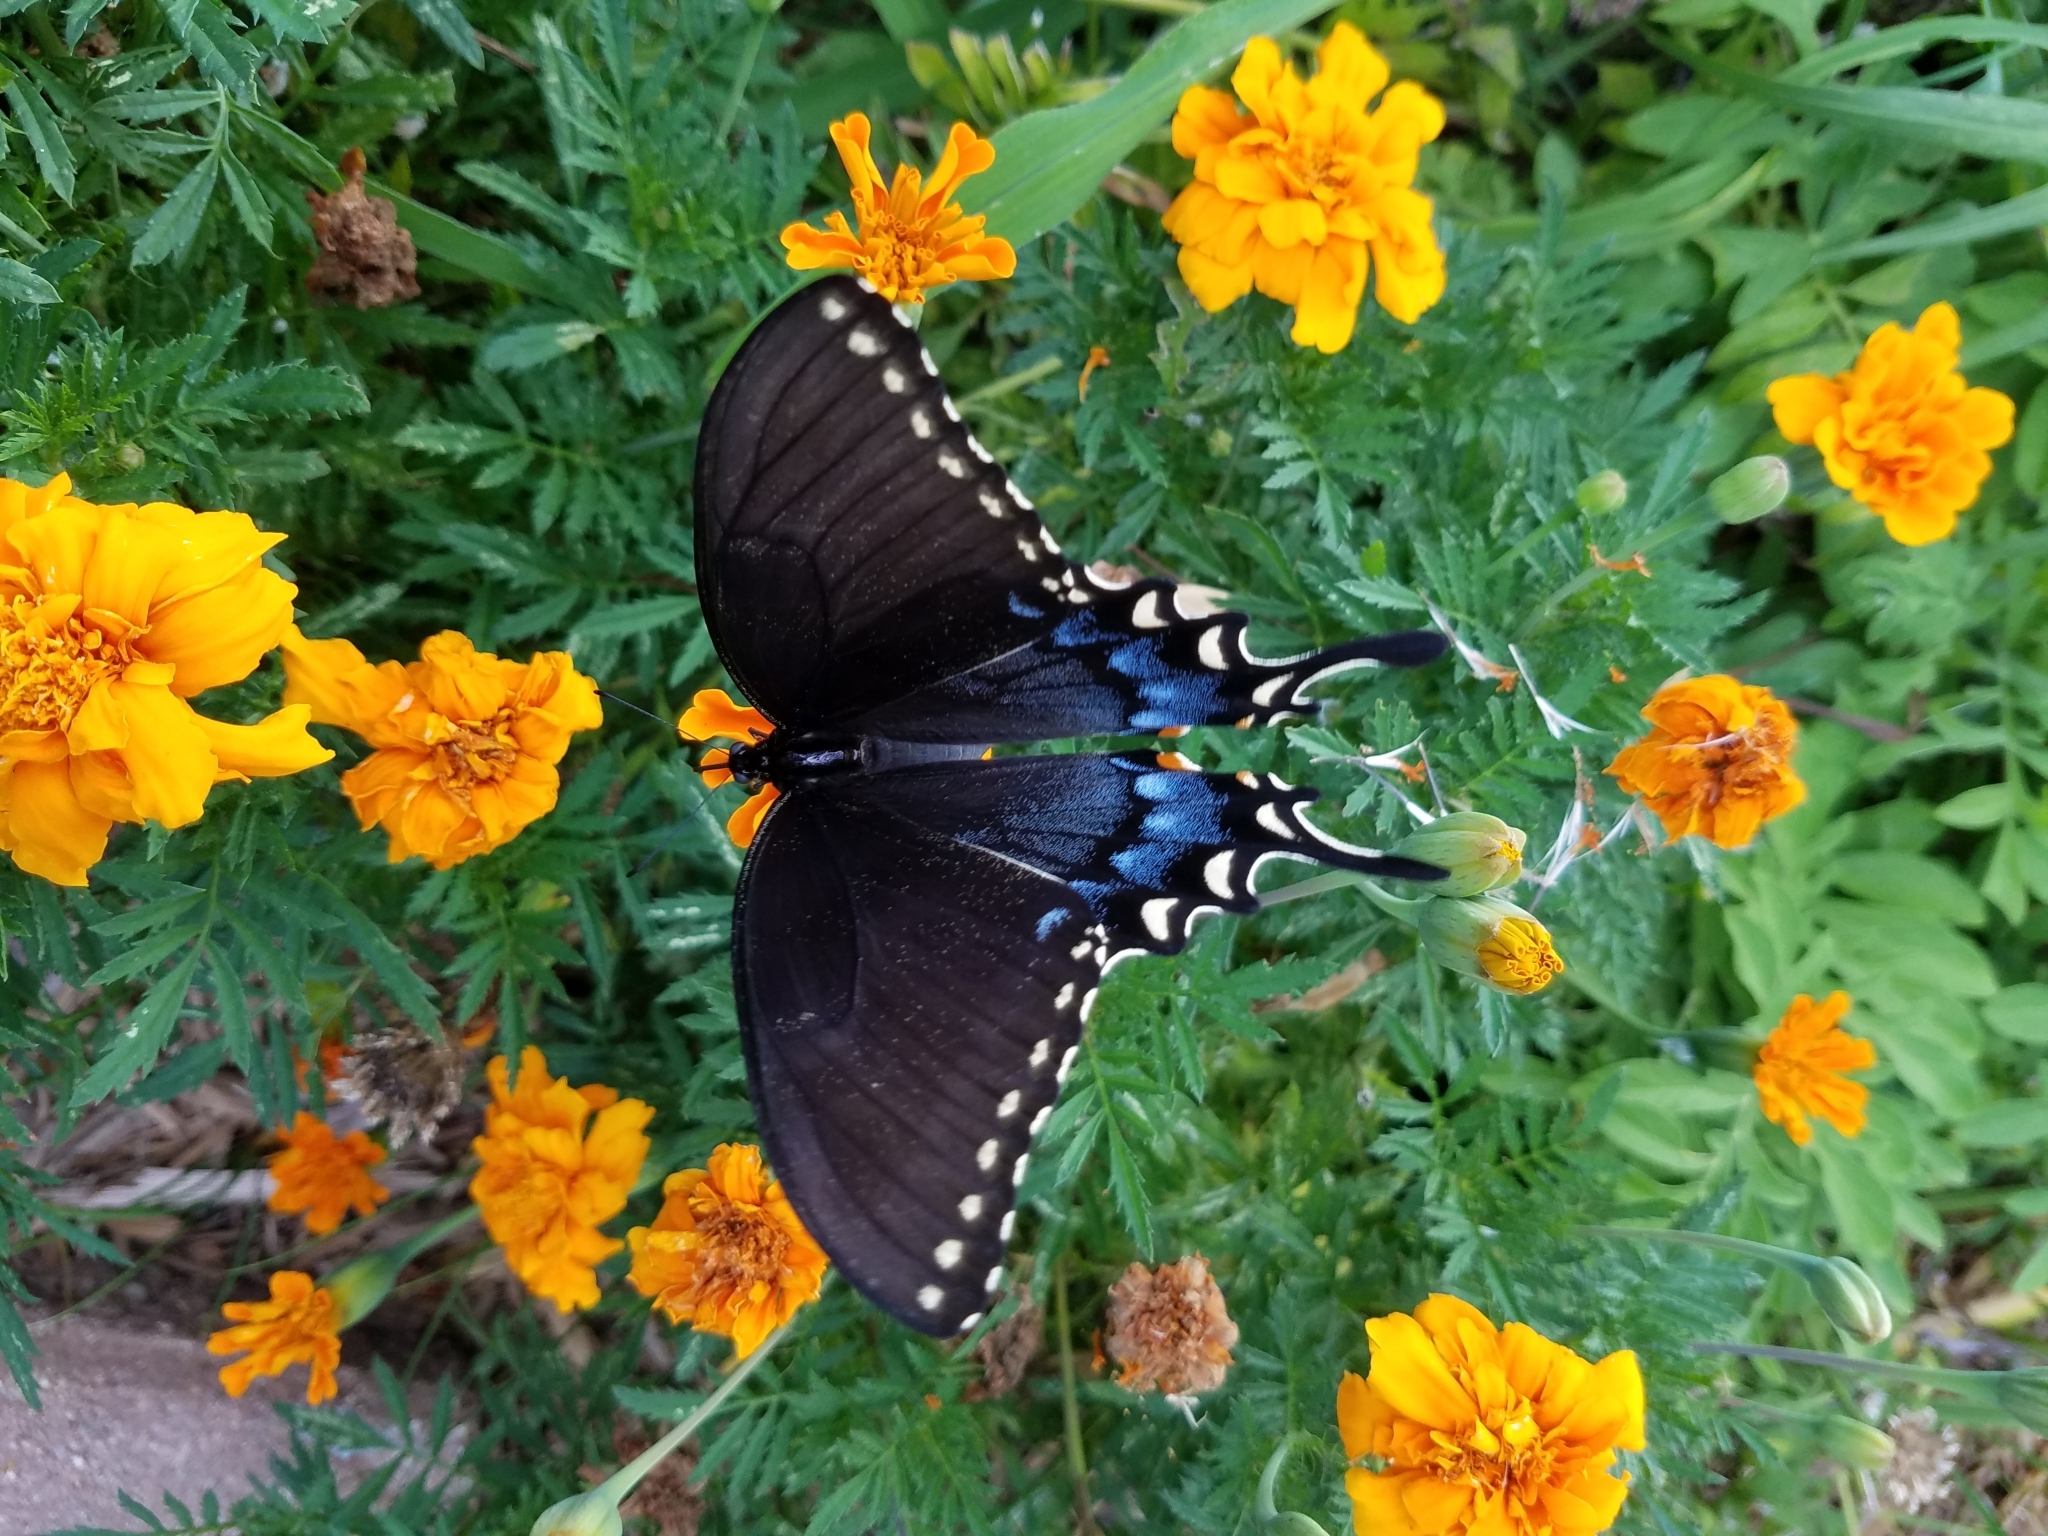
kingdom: Animalia
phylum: Arthropoda
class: Insecta
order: Lepidoptera
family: Papilionidae
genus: Papilio
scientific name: Papilio glaucus
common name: Tiger swallowtail
